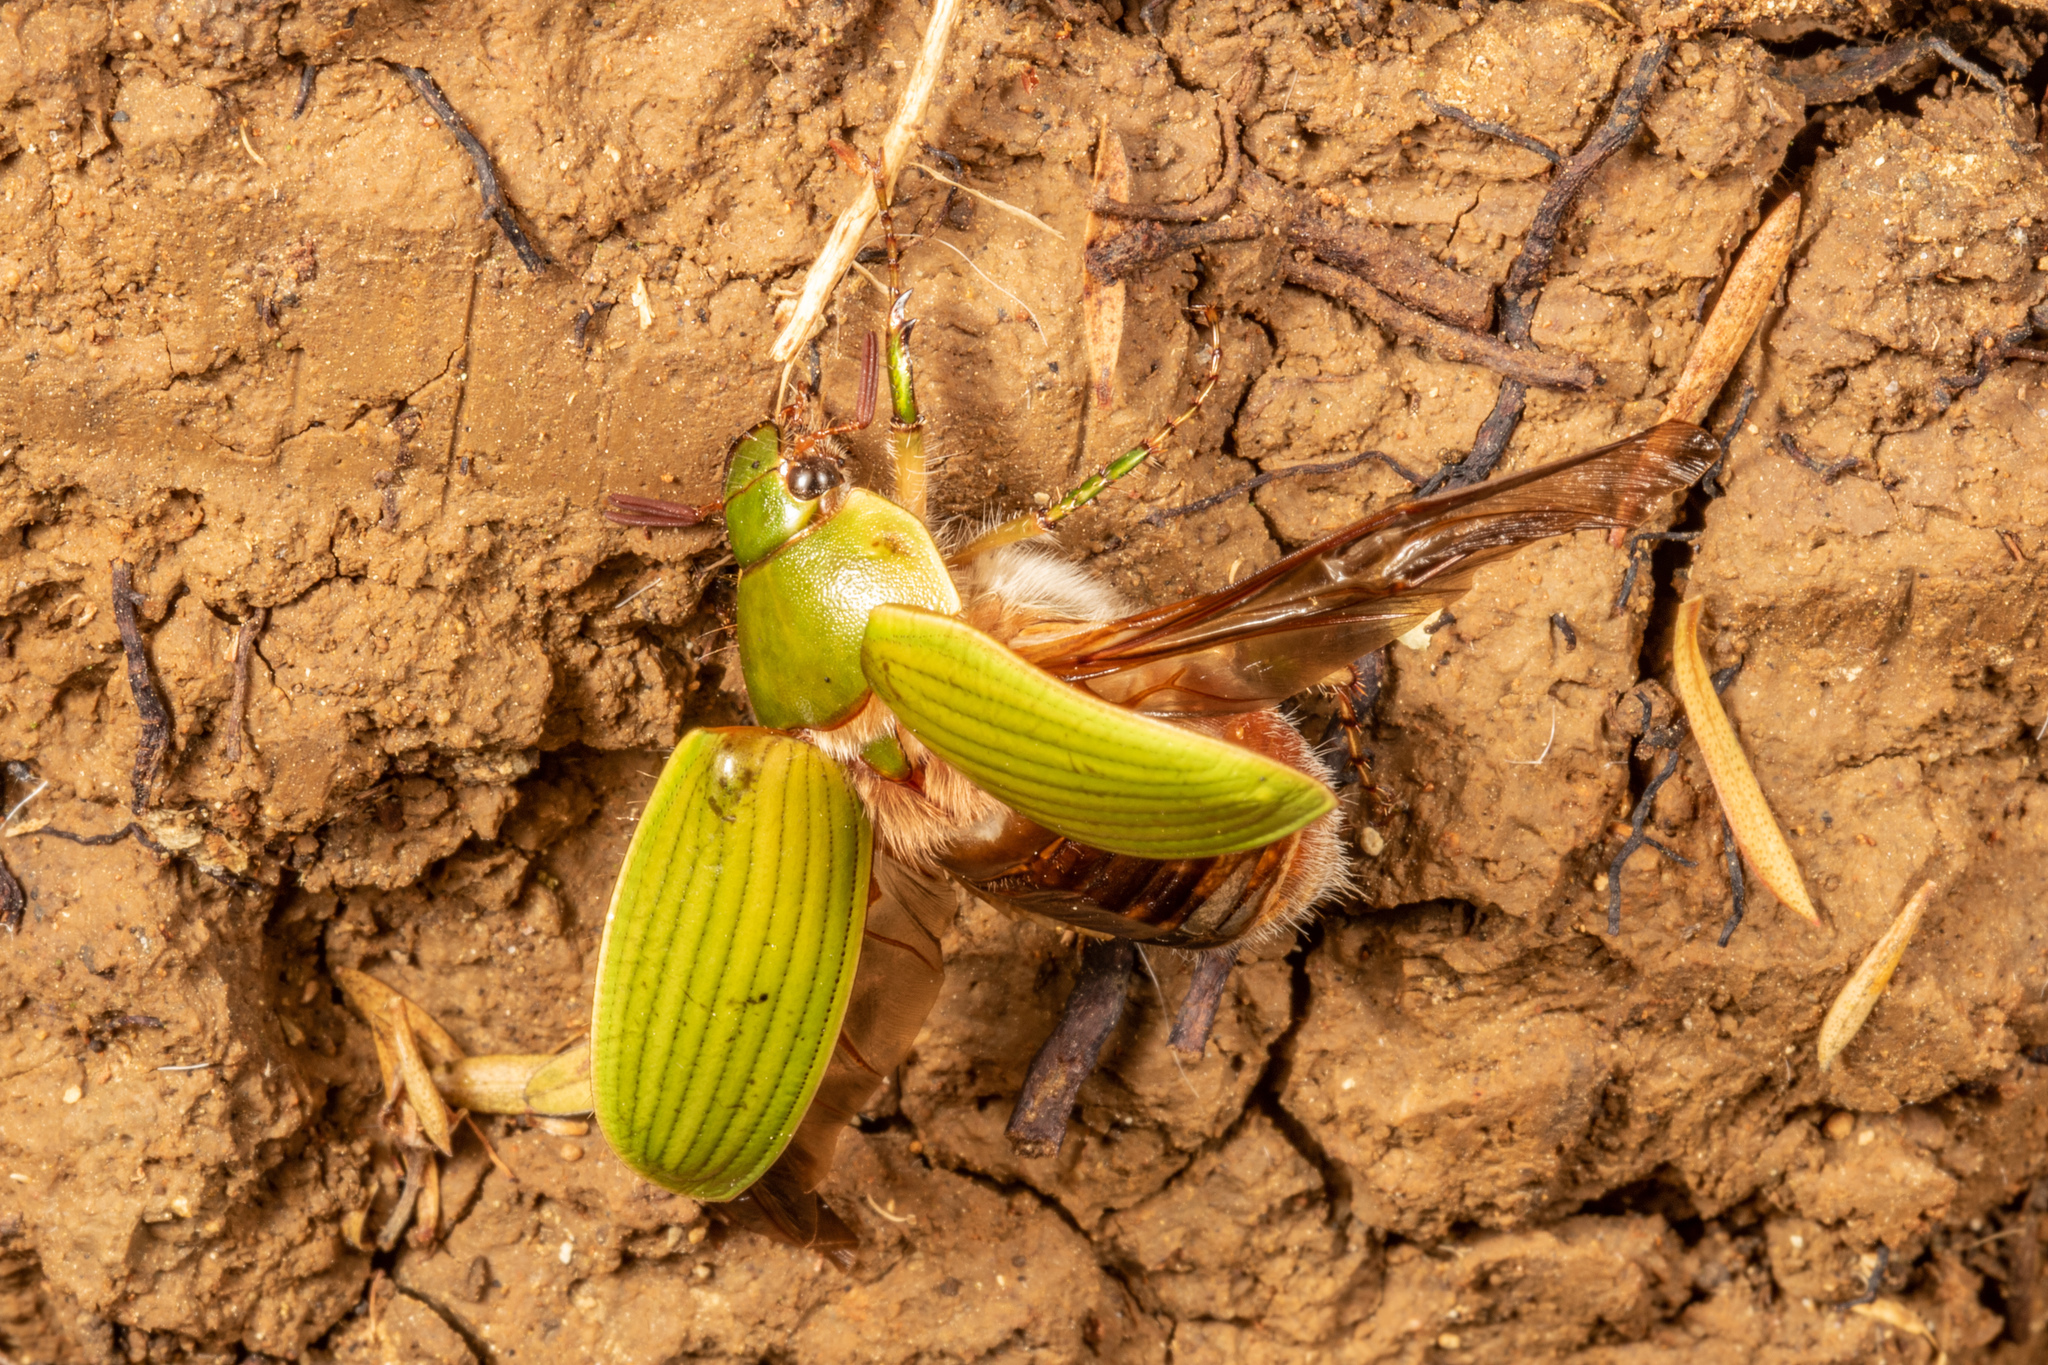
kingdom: Animalia
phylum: Arthropoda
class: Insecta
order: Coleoptera
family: Scarabaeidae
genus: Stethaspis
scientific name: Stethaspis longicornis
